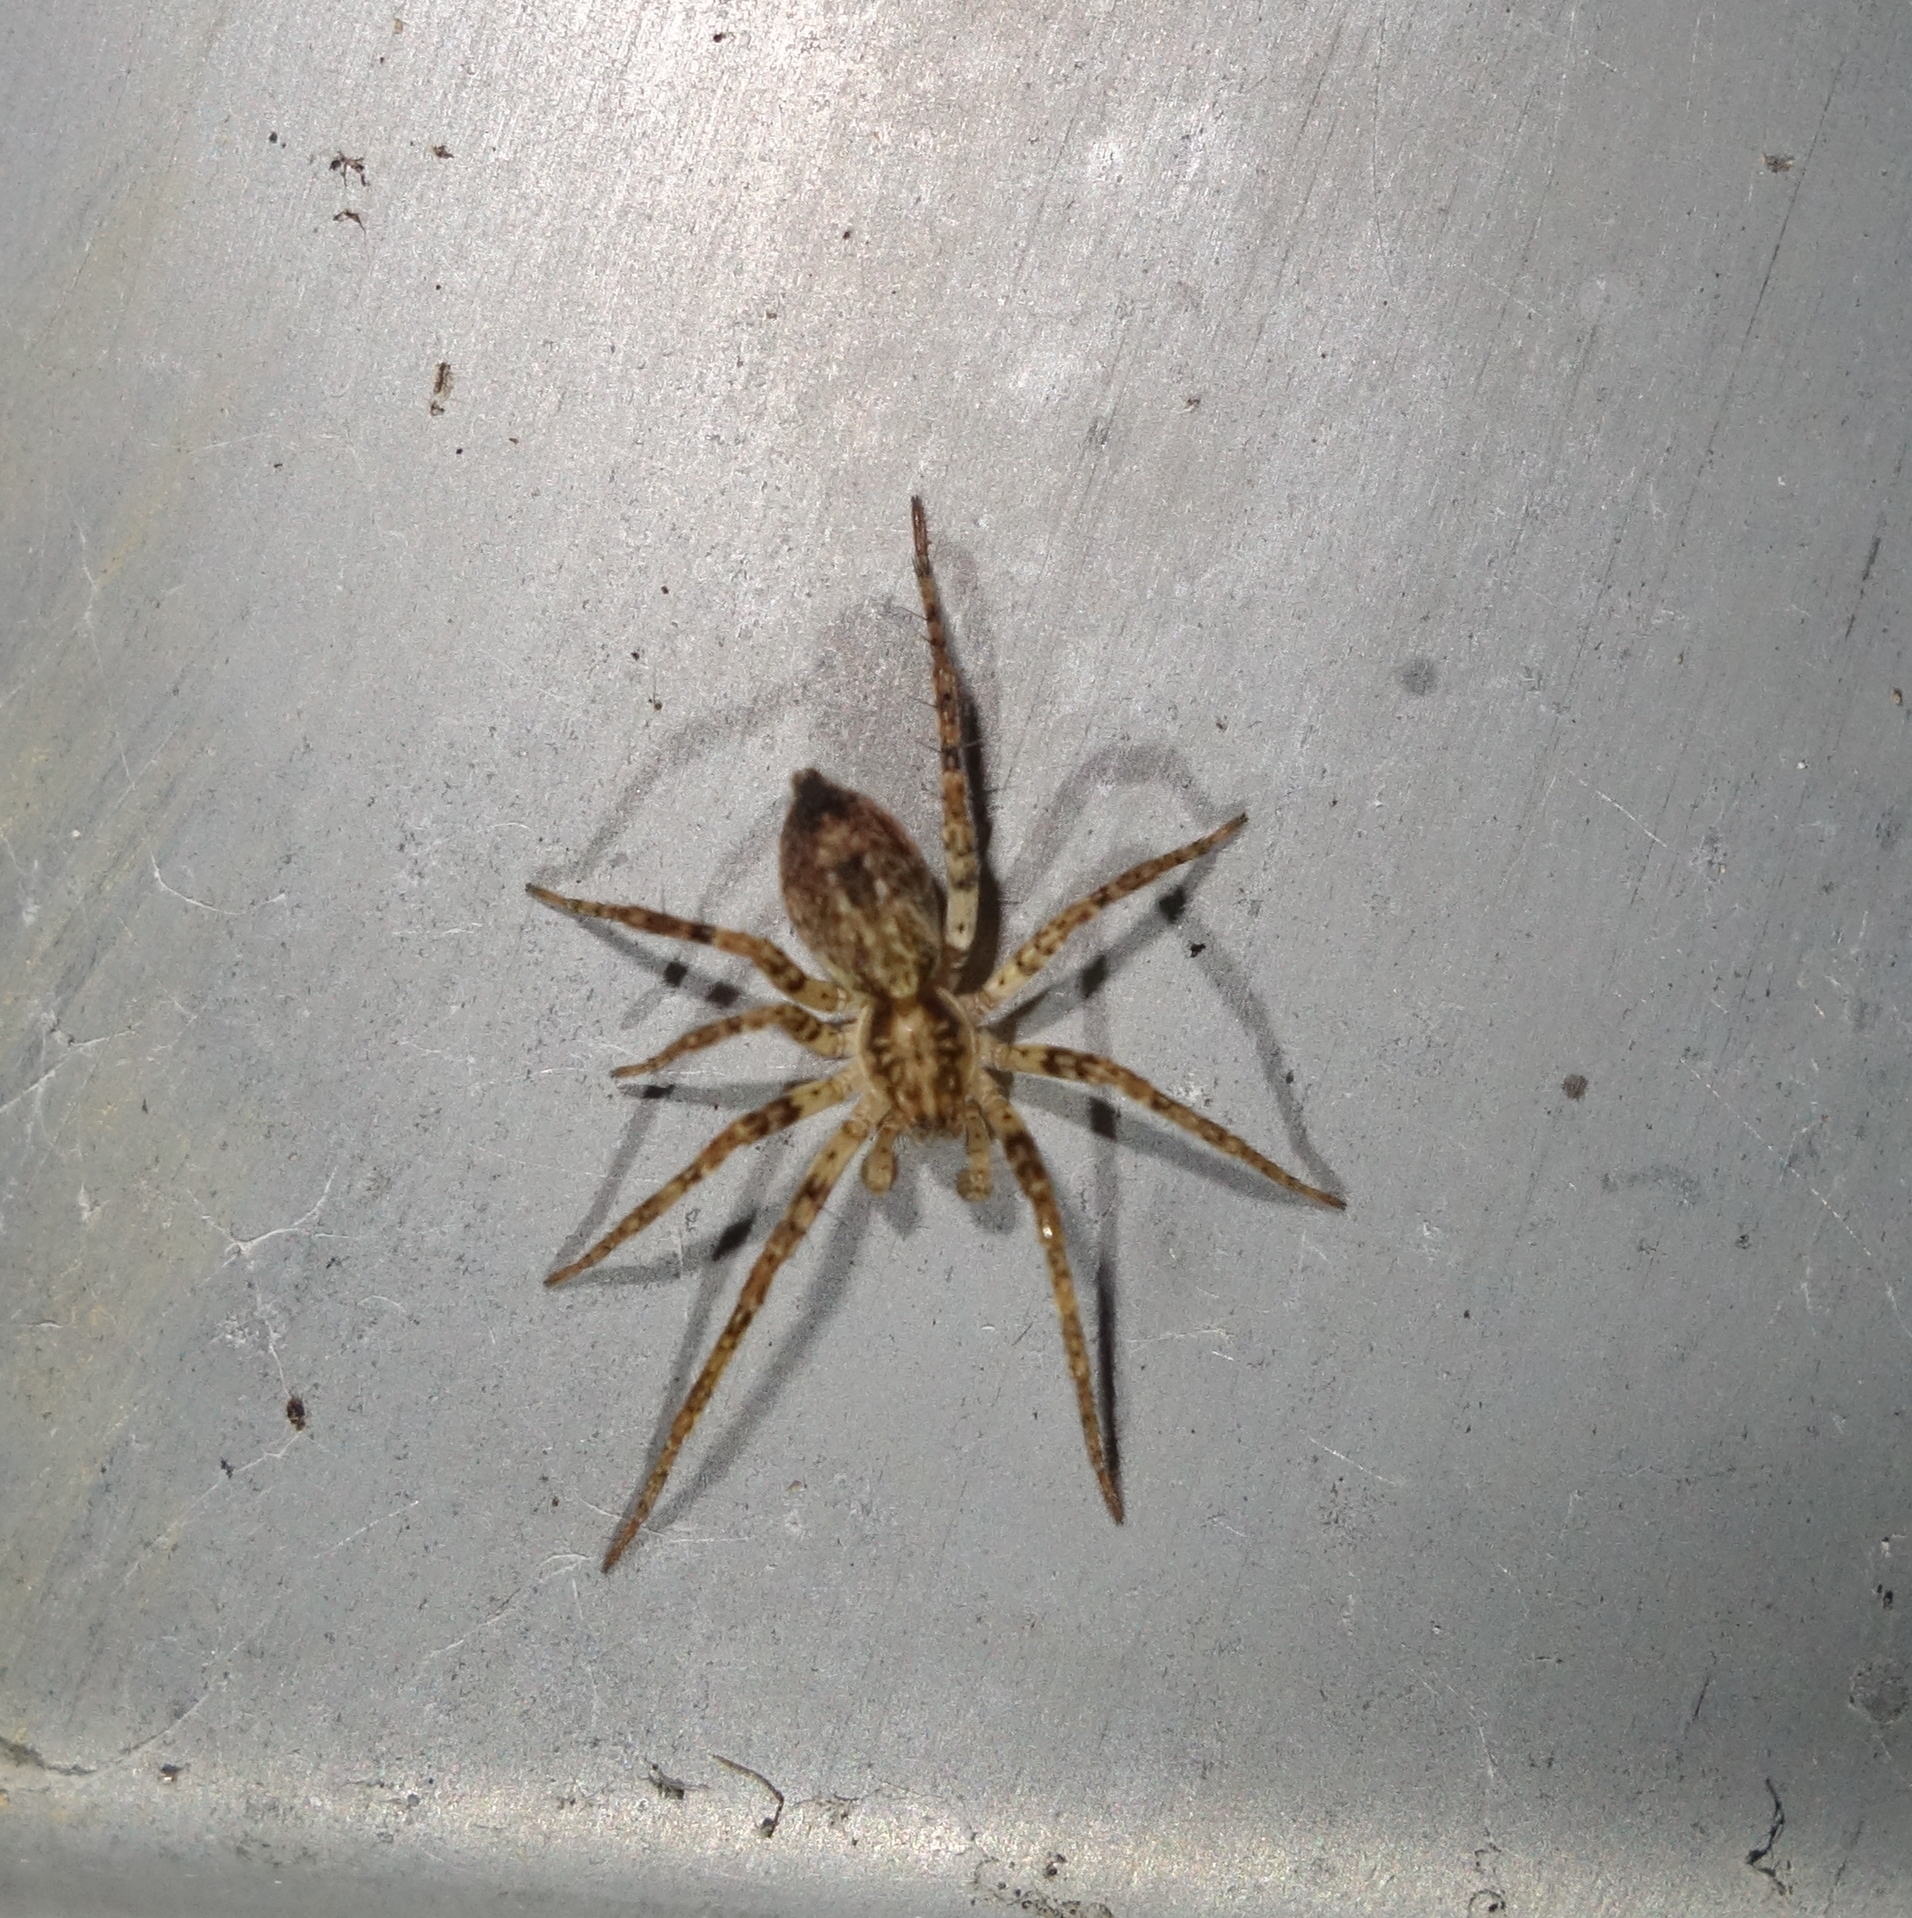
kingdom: Animalia
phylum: Arthropoda
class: Arachnida
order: Araneae
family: Anyphaenidae
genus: Anyphaena
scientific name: Anyphaena accentuata
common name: Buzzing spider
